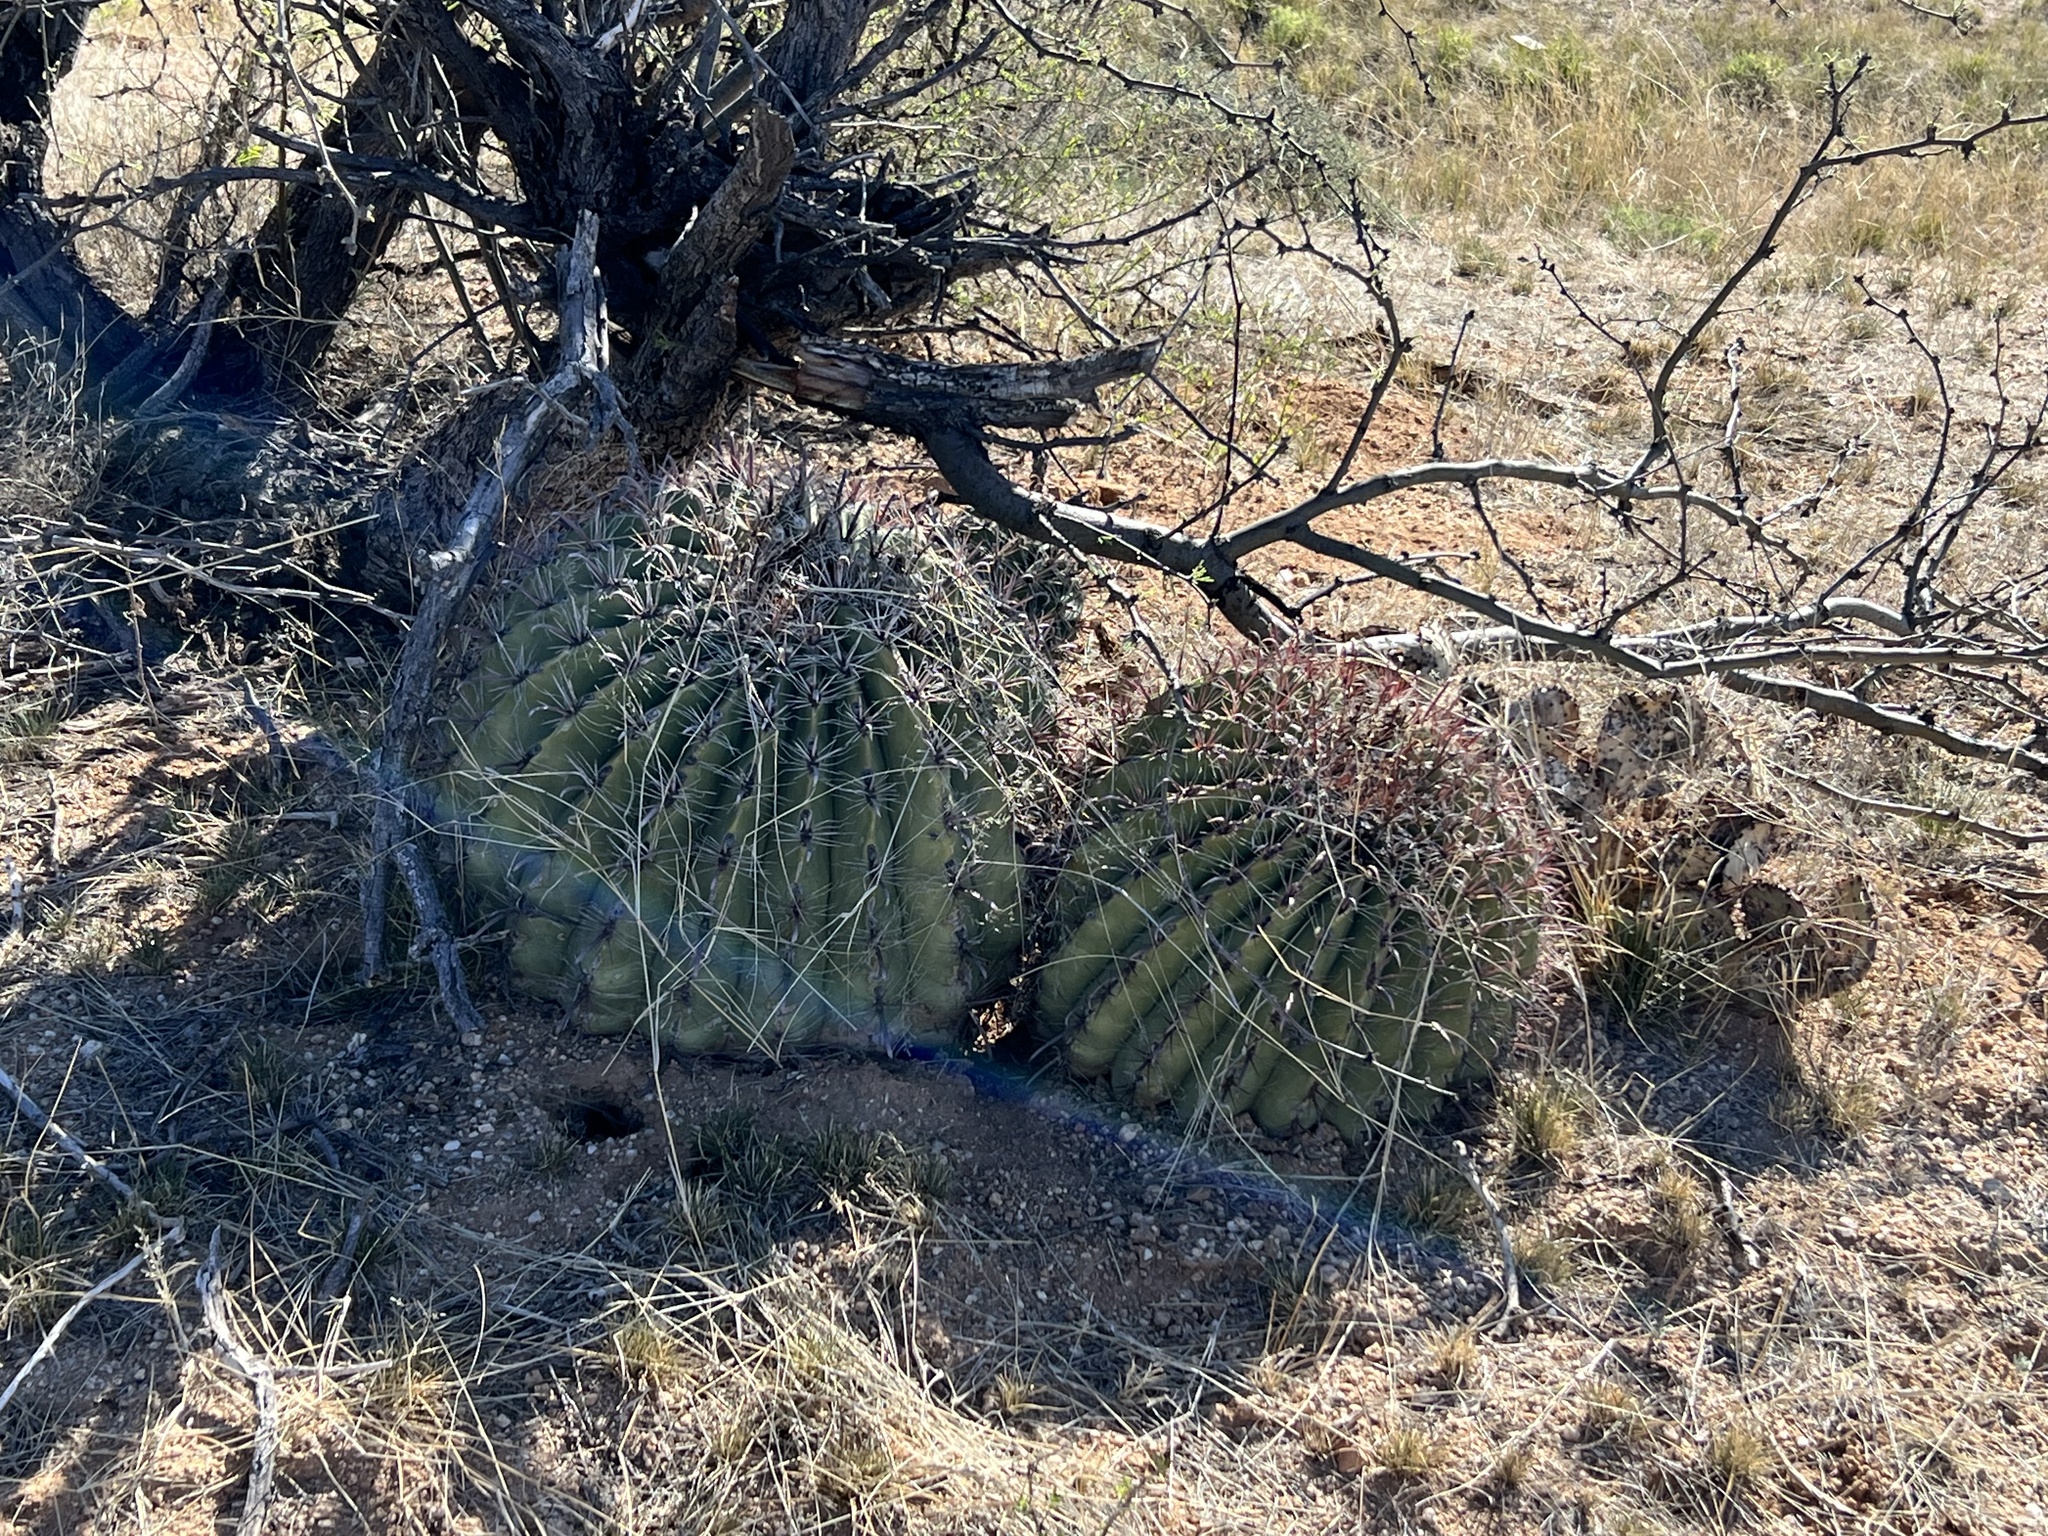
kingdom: Plantae
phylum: Tracheophyta
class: Magnoliopsida
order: Caryophyllales
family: Cactaceae
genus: Ferocactus
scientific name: Ferocactus wislizeni
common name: Candy barrel cactus
